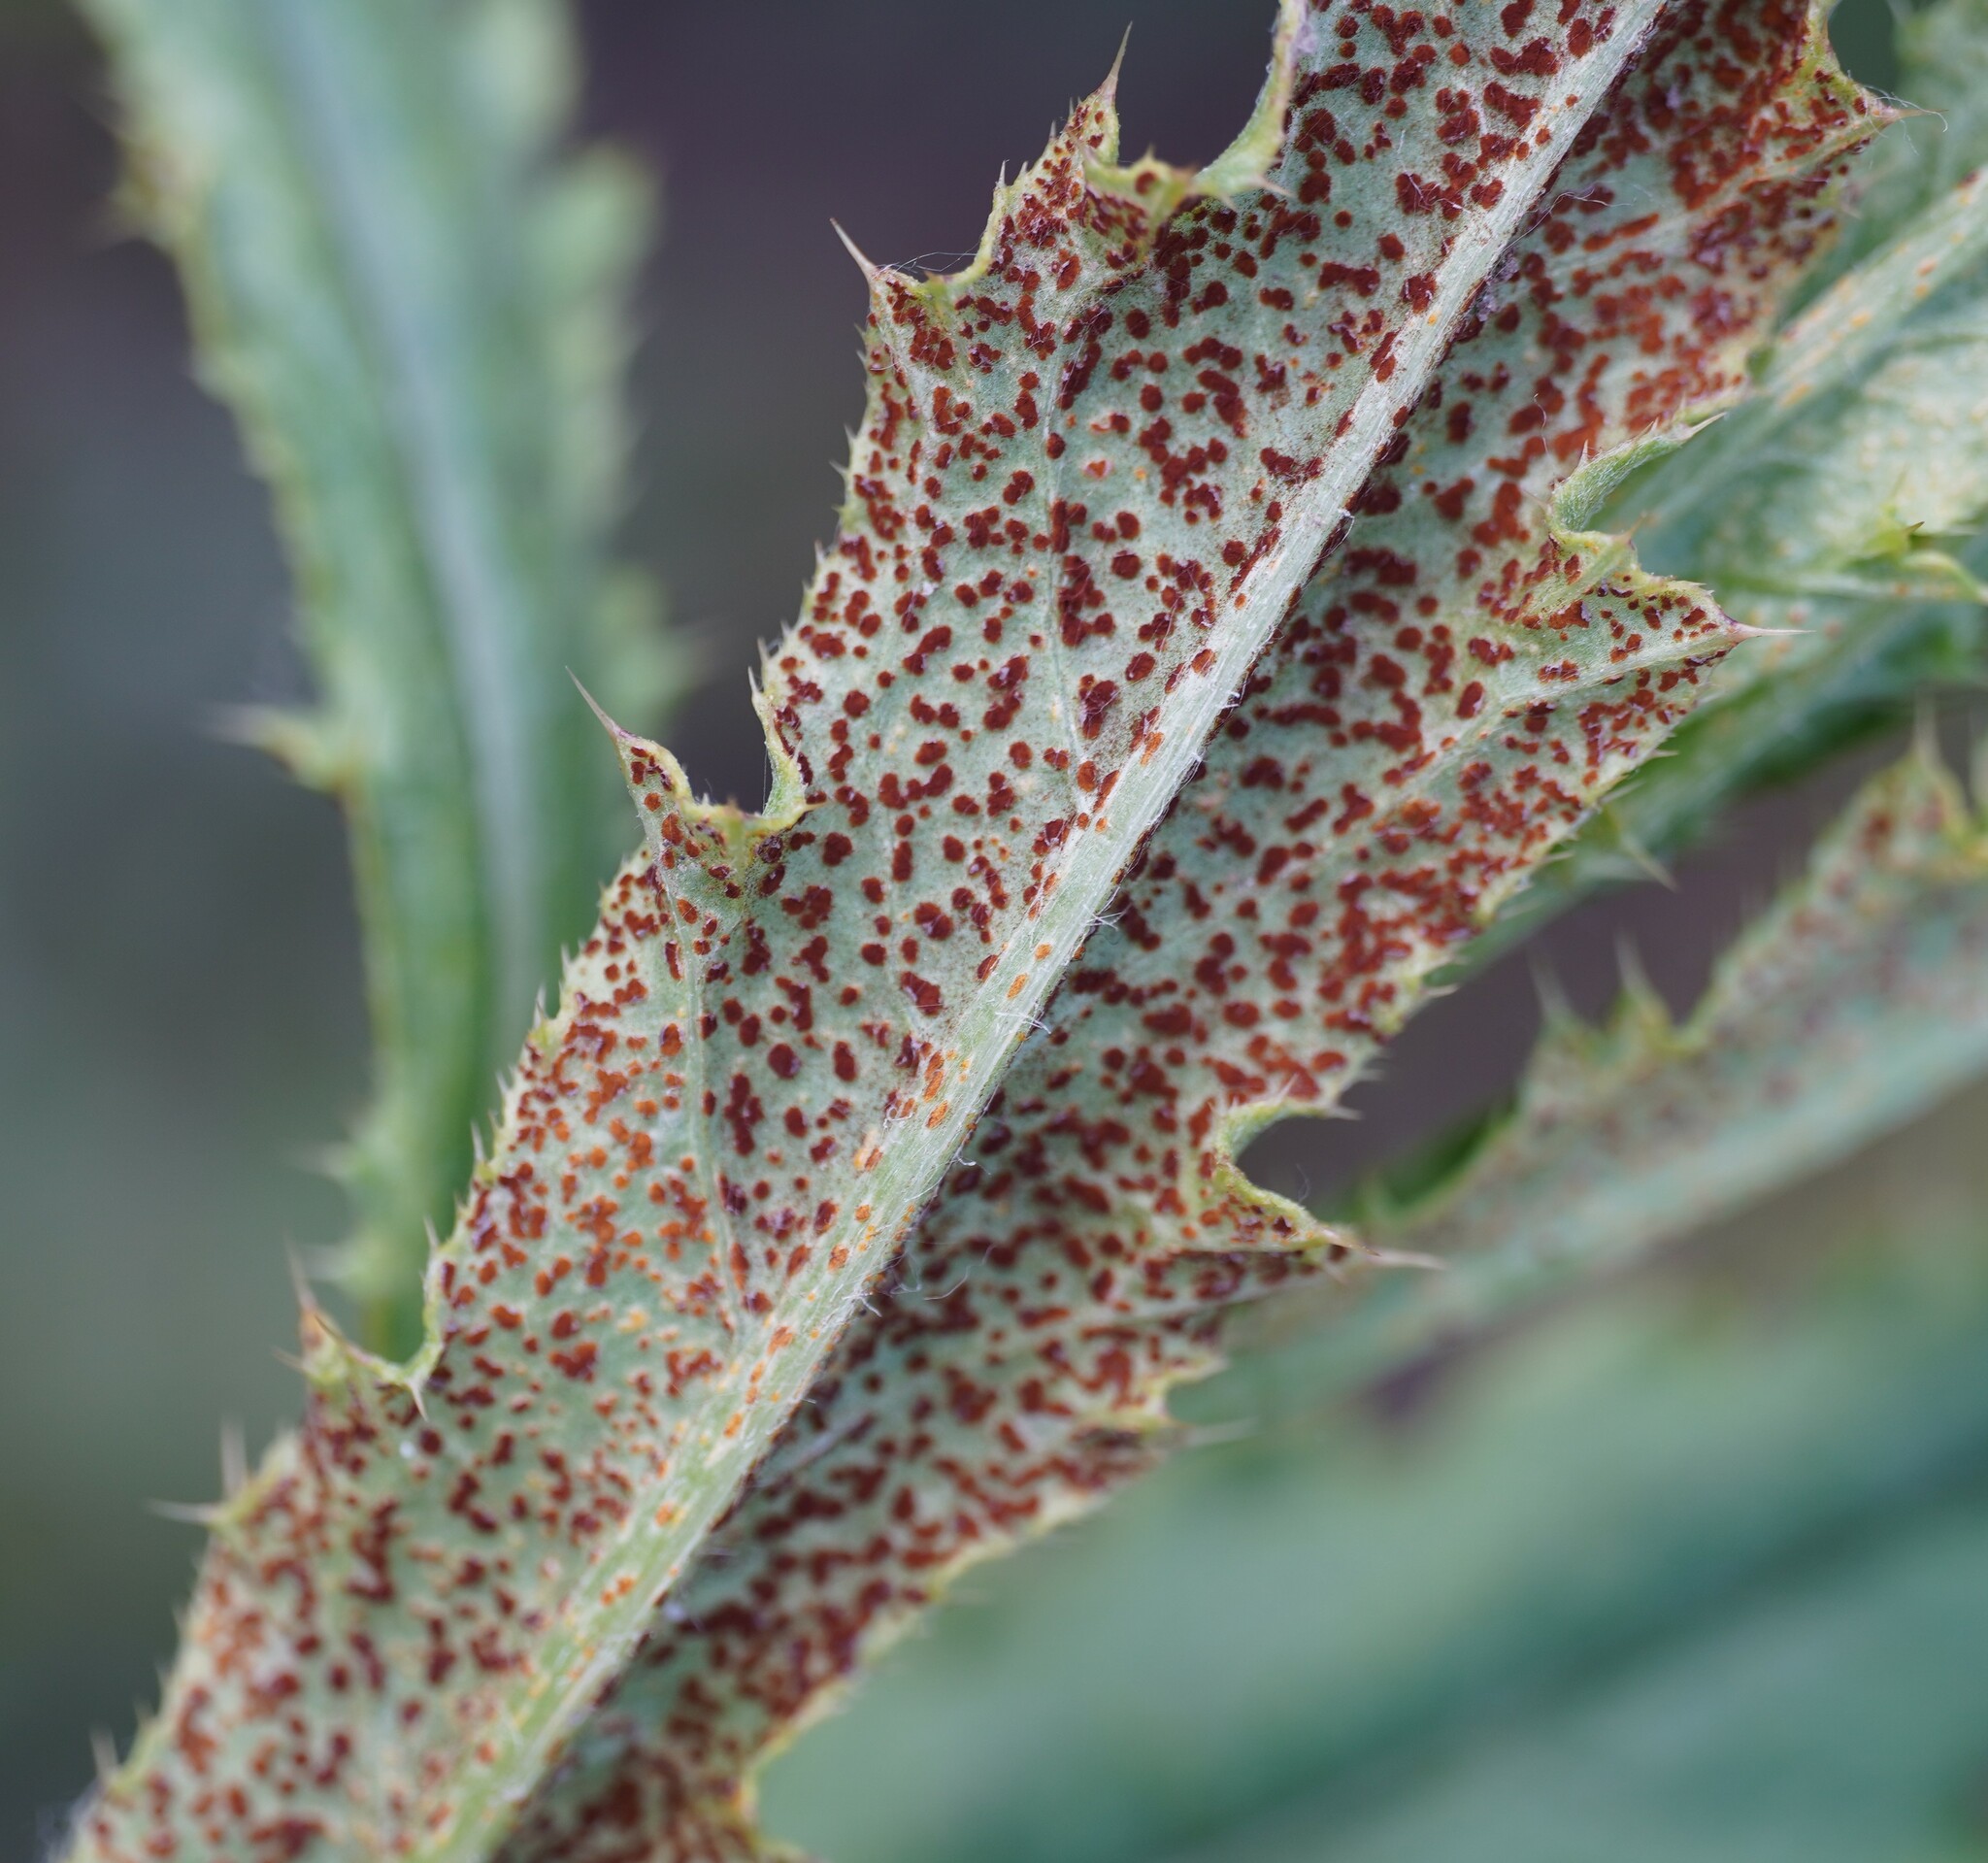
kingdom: Fungi
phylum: Basidiomycota
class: Pucciniomycetes
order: Pucciniales
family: Pucciniaceae
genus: Puccinia
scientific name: Puccinia suaveolens
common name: Thistle rust
